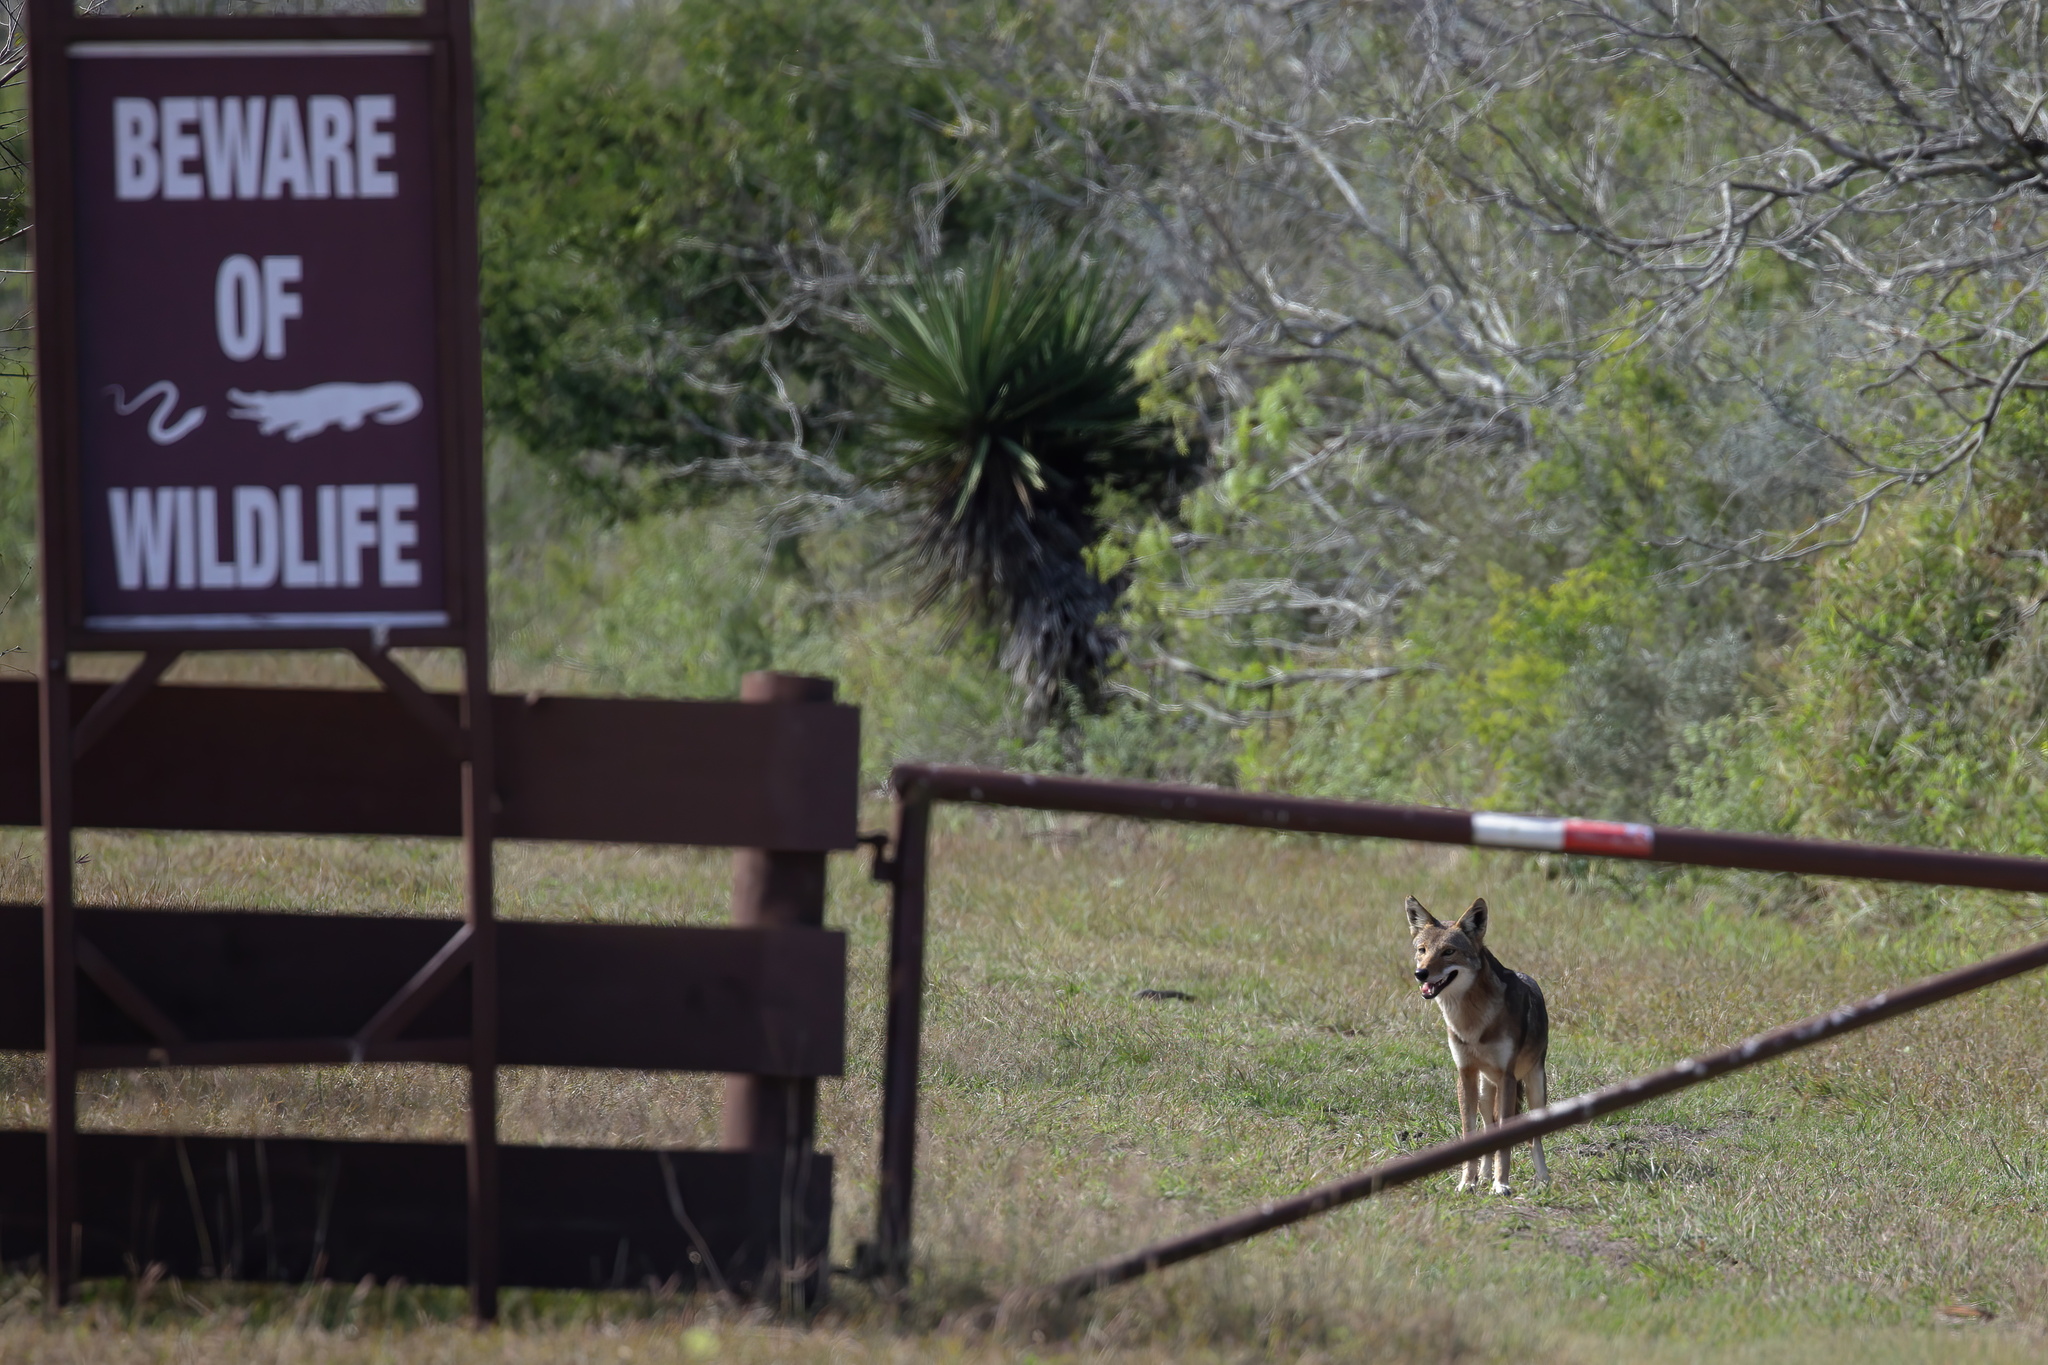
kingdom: Animalia
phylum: Chordata
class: Mammalia
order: Carnivora
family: Canidae
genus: Canis
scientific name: Canis latrans
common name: Coyote
